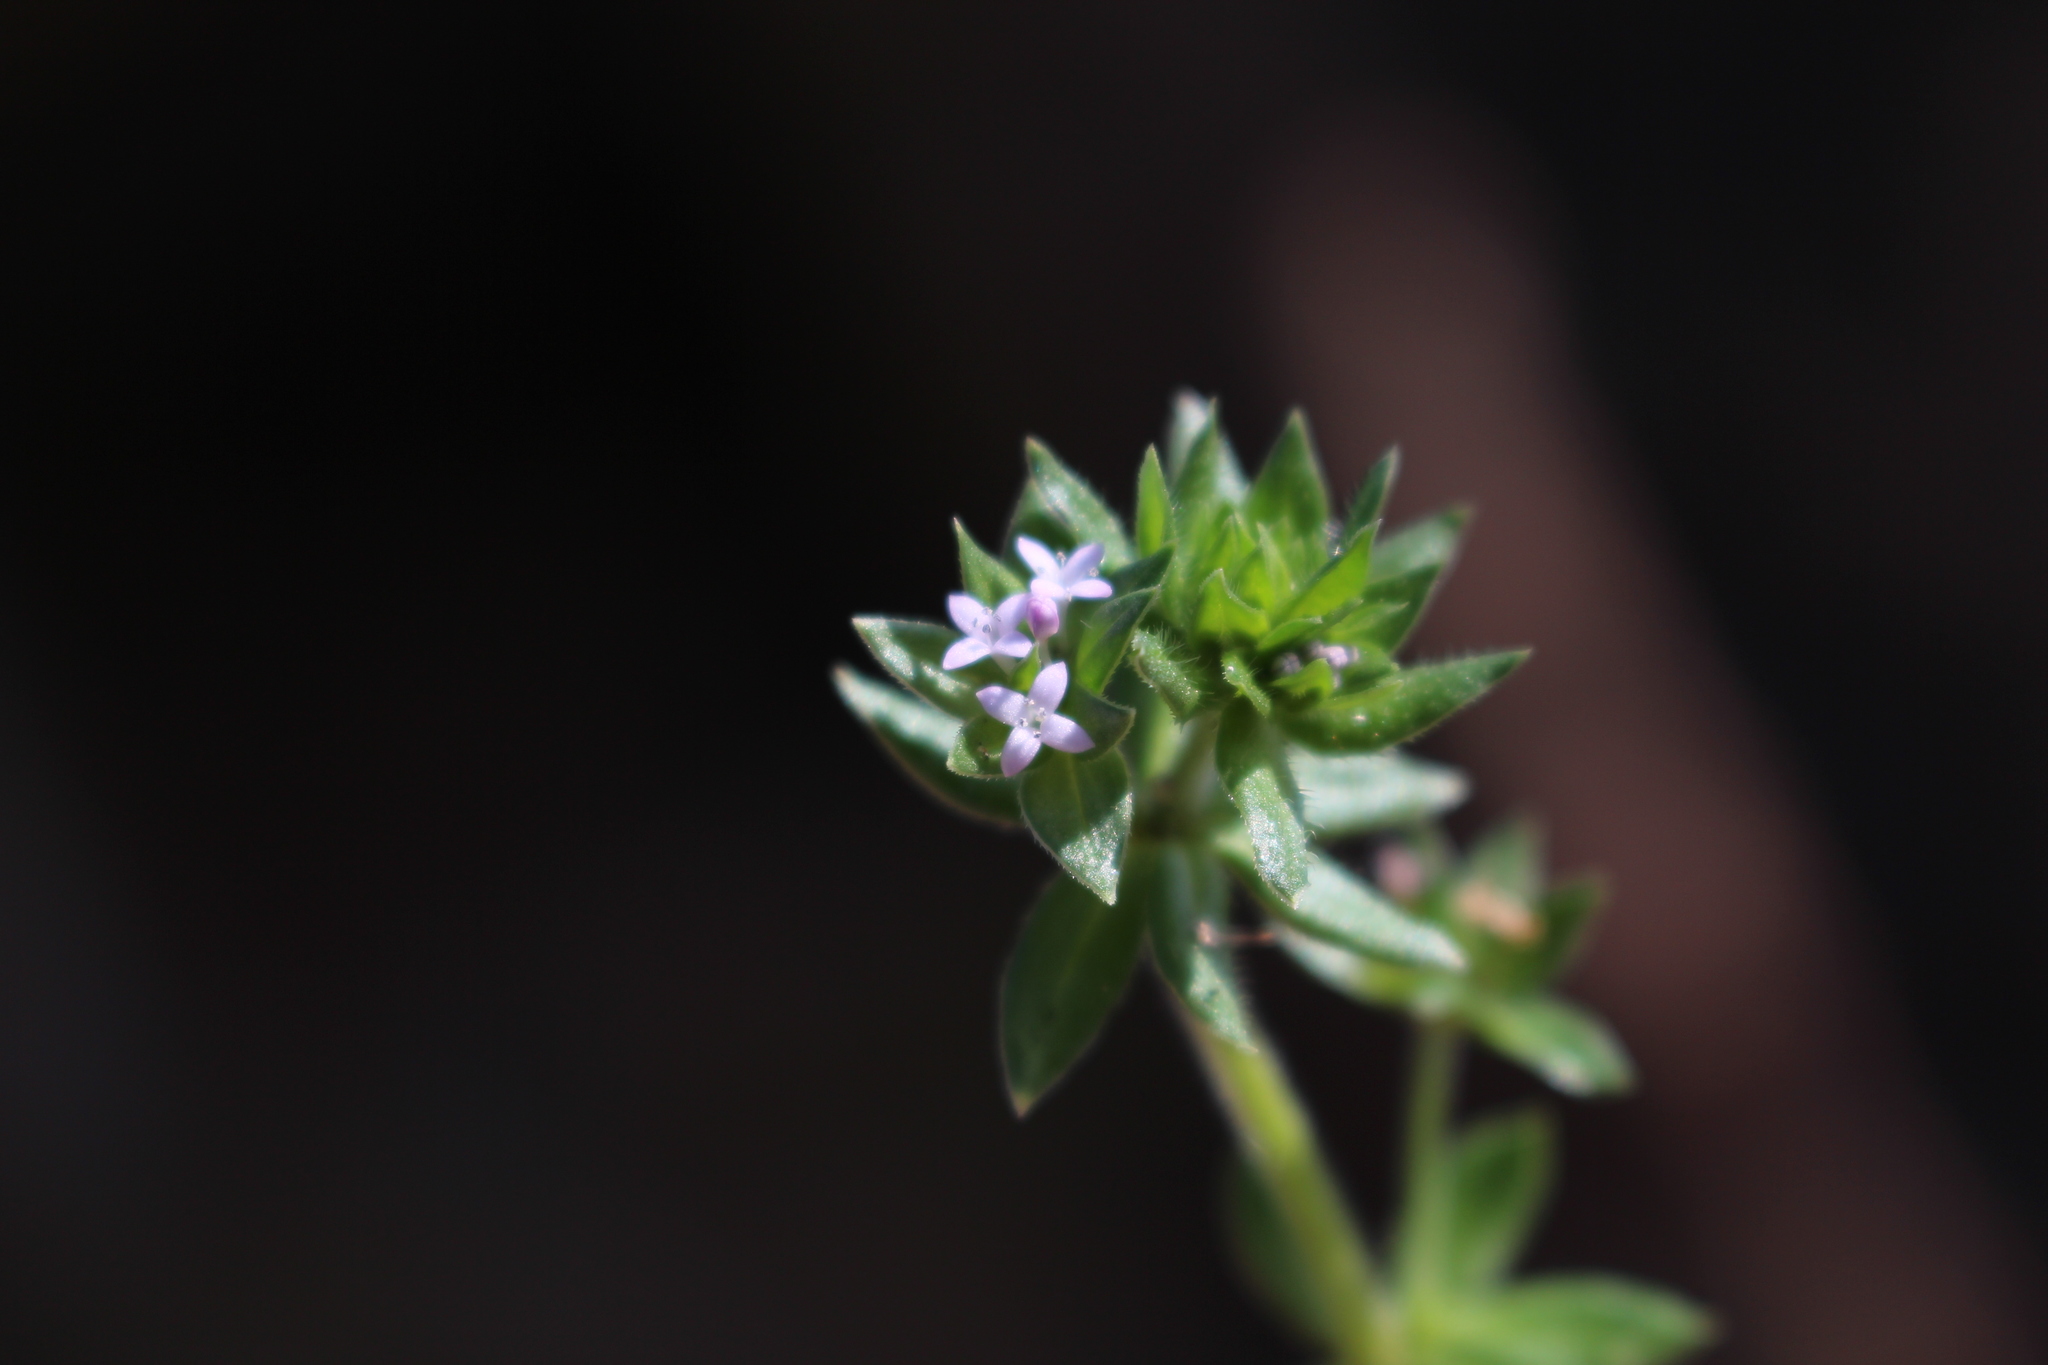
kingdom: Plantae
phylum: Tracheophyta
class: Magnoliopsida
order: Gentianales
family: Rubiaceae
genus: Sherardia
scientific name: Sherardia arvensis
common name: Field madder
